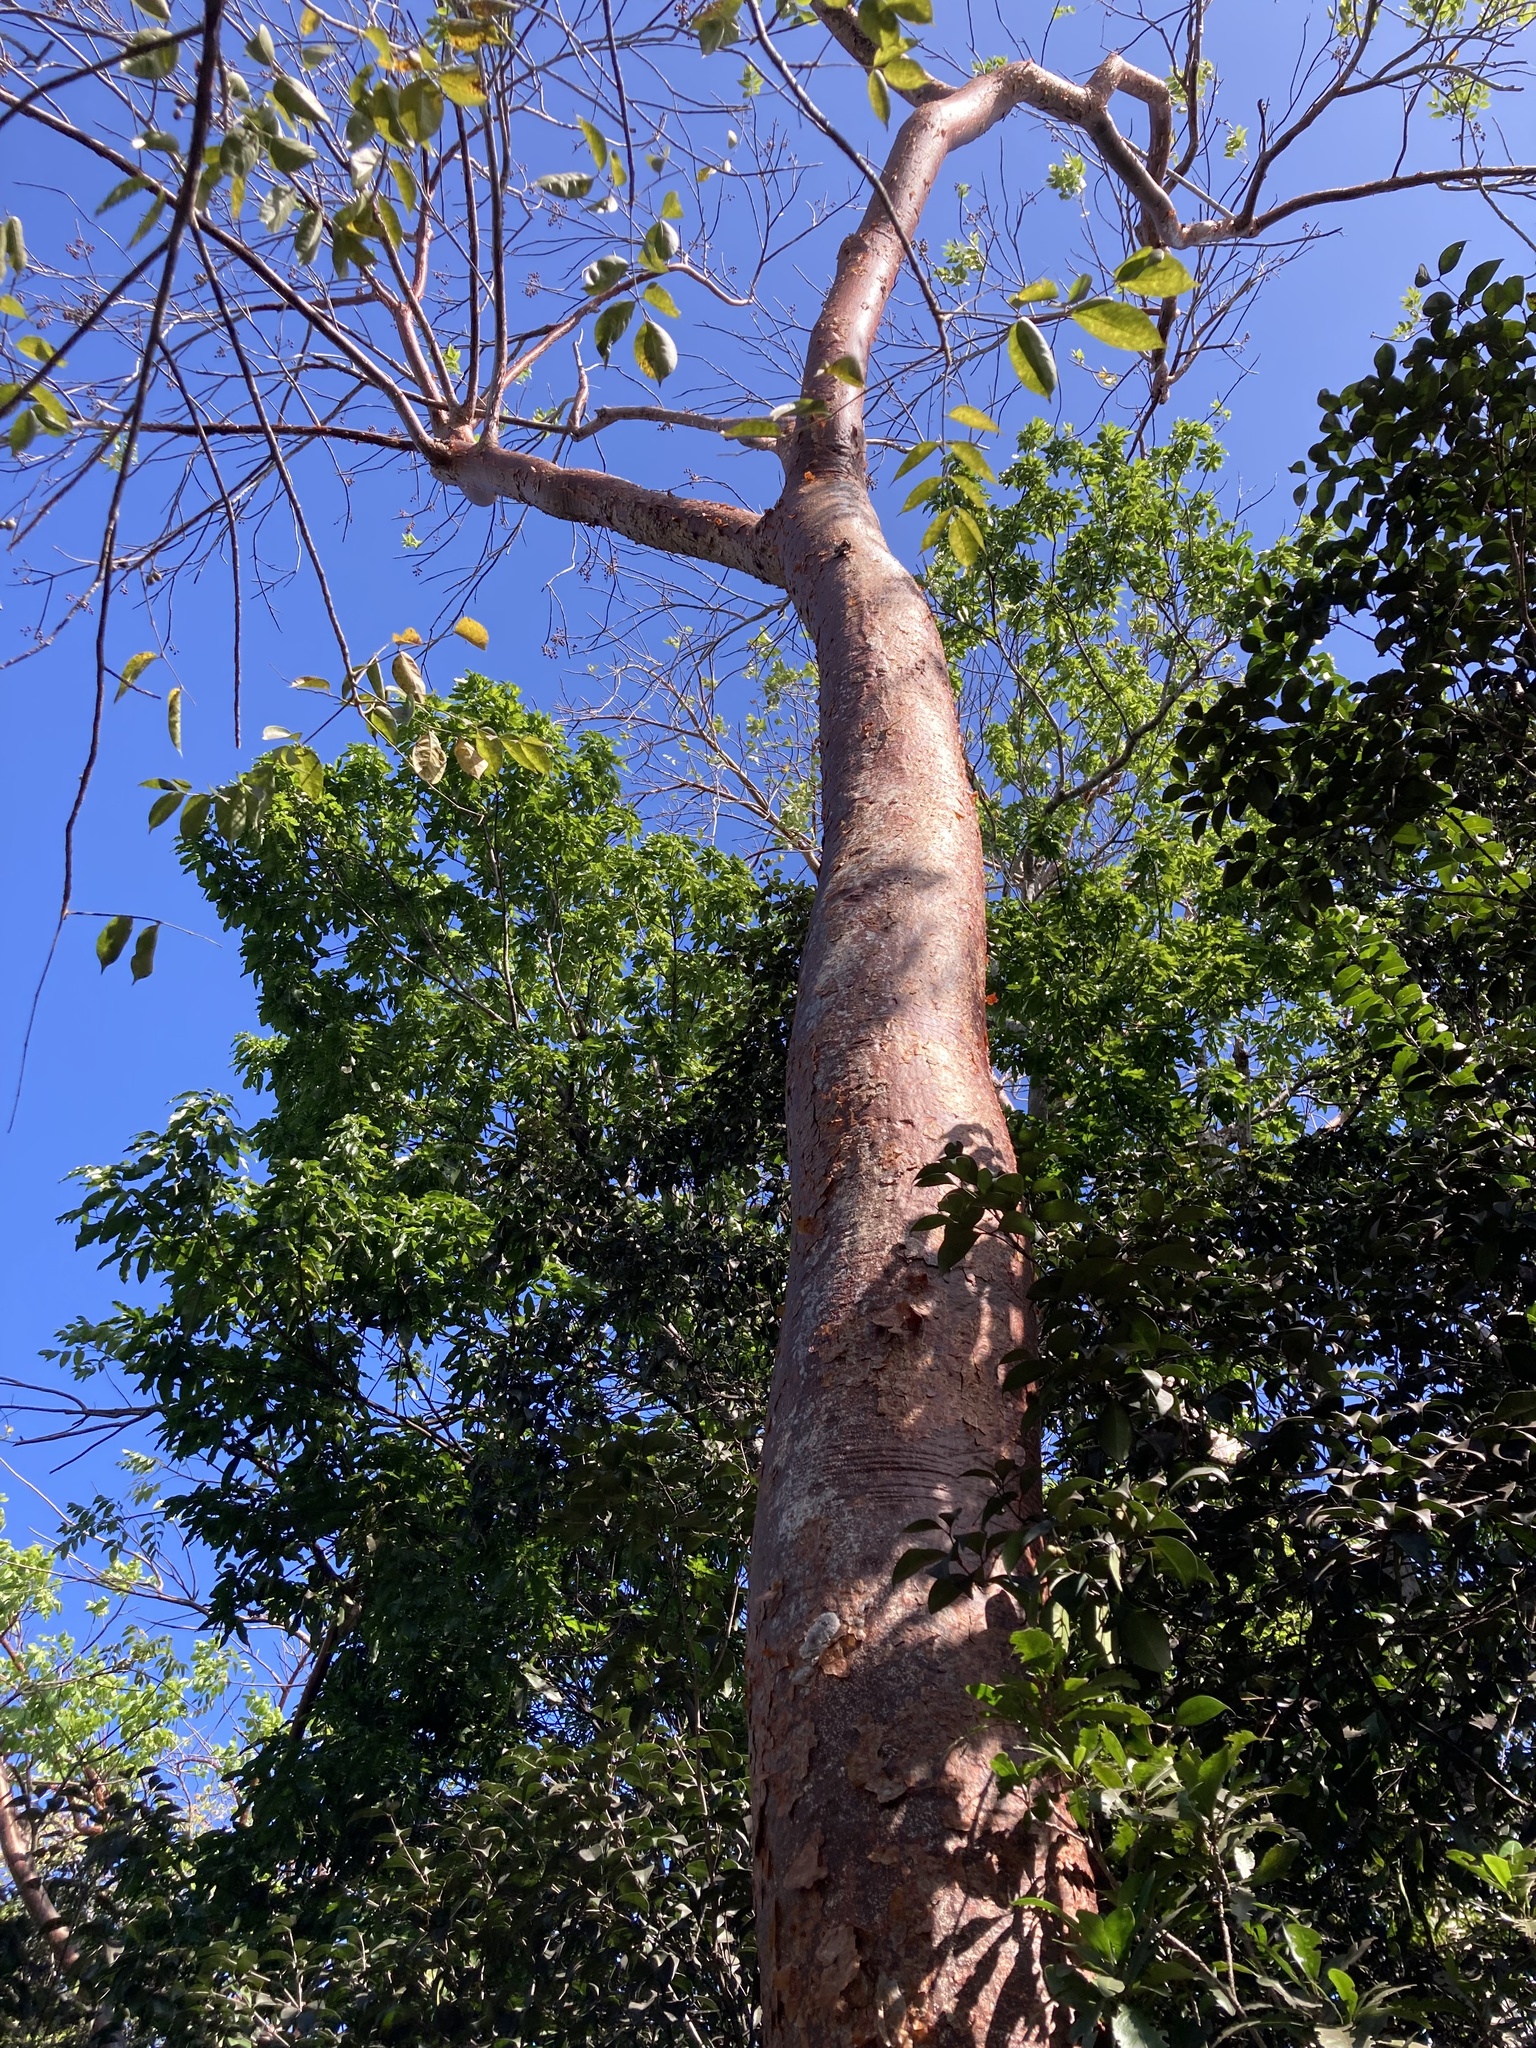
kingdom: Plantae
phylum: Tracheophyta
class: Magnoliopsida
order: Sapindales
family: Burseraceae
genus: Bursera
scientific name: Bursera simaruba
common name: Turpentine tree
